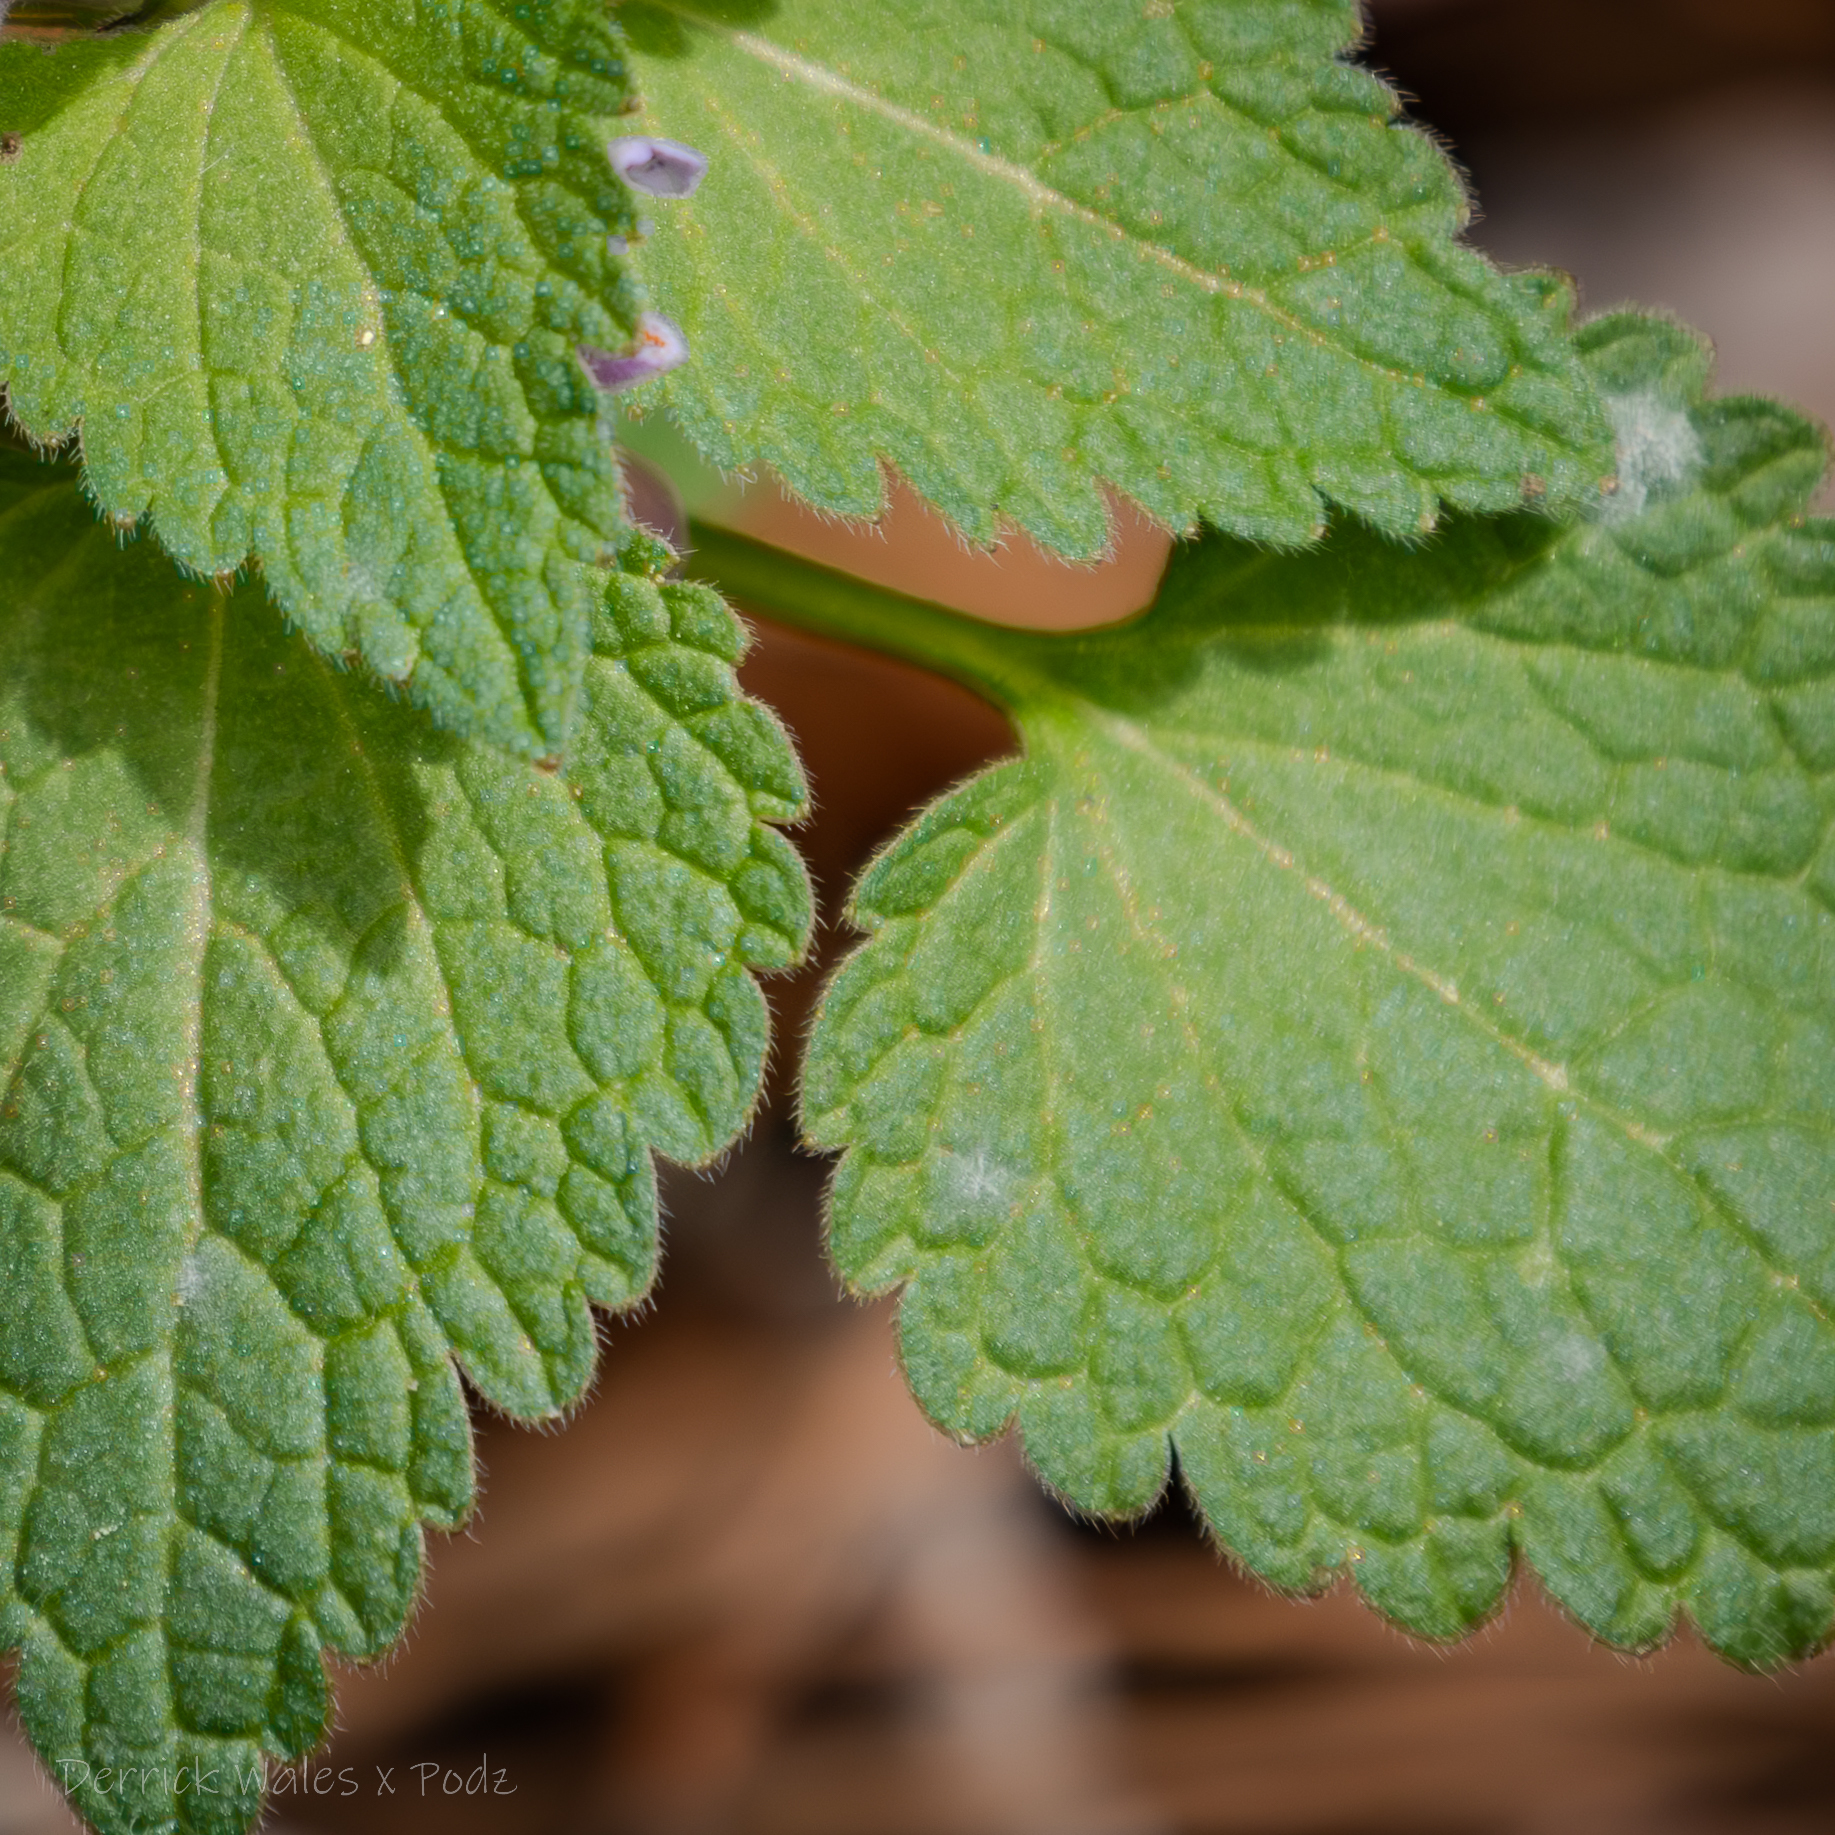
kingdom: Fungi
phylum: Ascomycota
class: Leotiomycetes
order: Helotiales
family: Erysiphaceae
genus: Neoerysiphe
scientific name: Neoerysiphe galeopsidis
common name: Mint mildew
